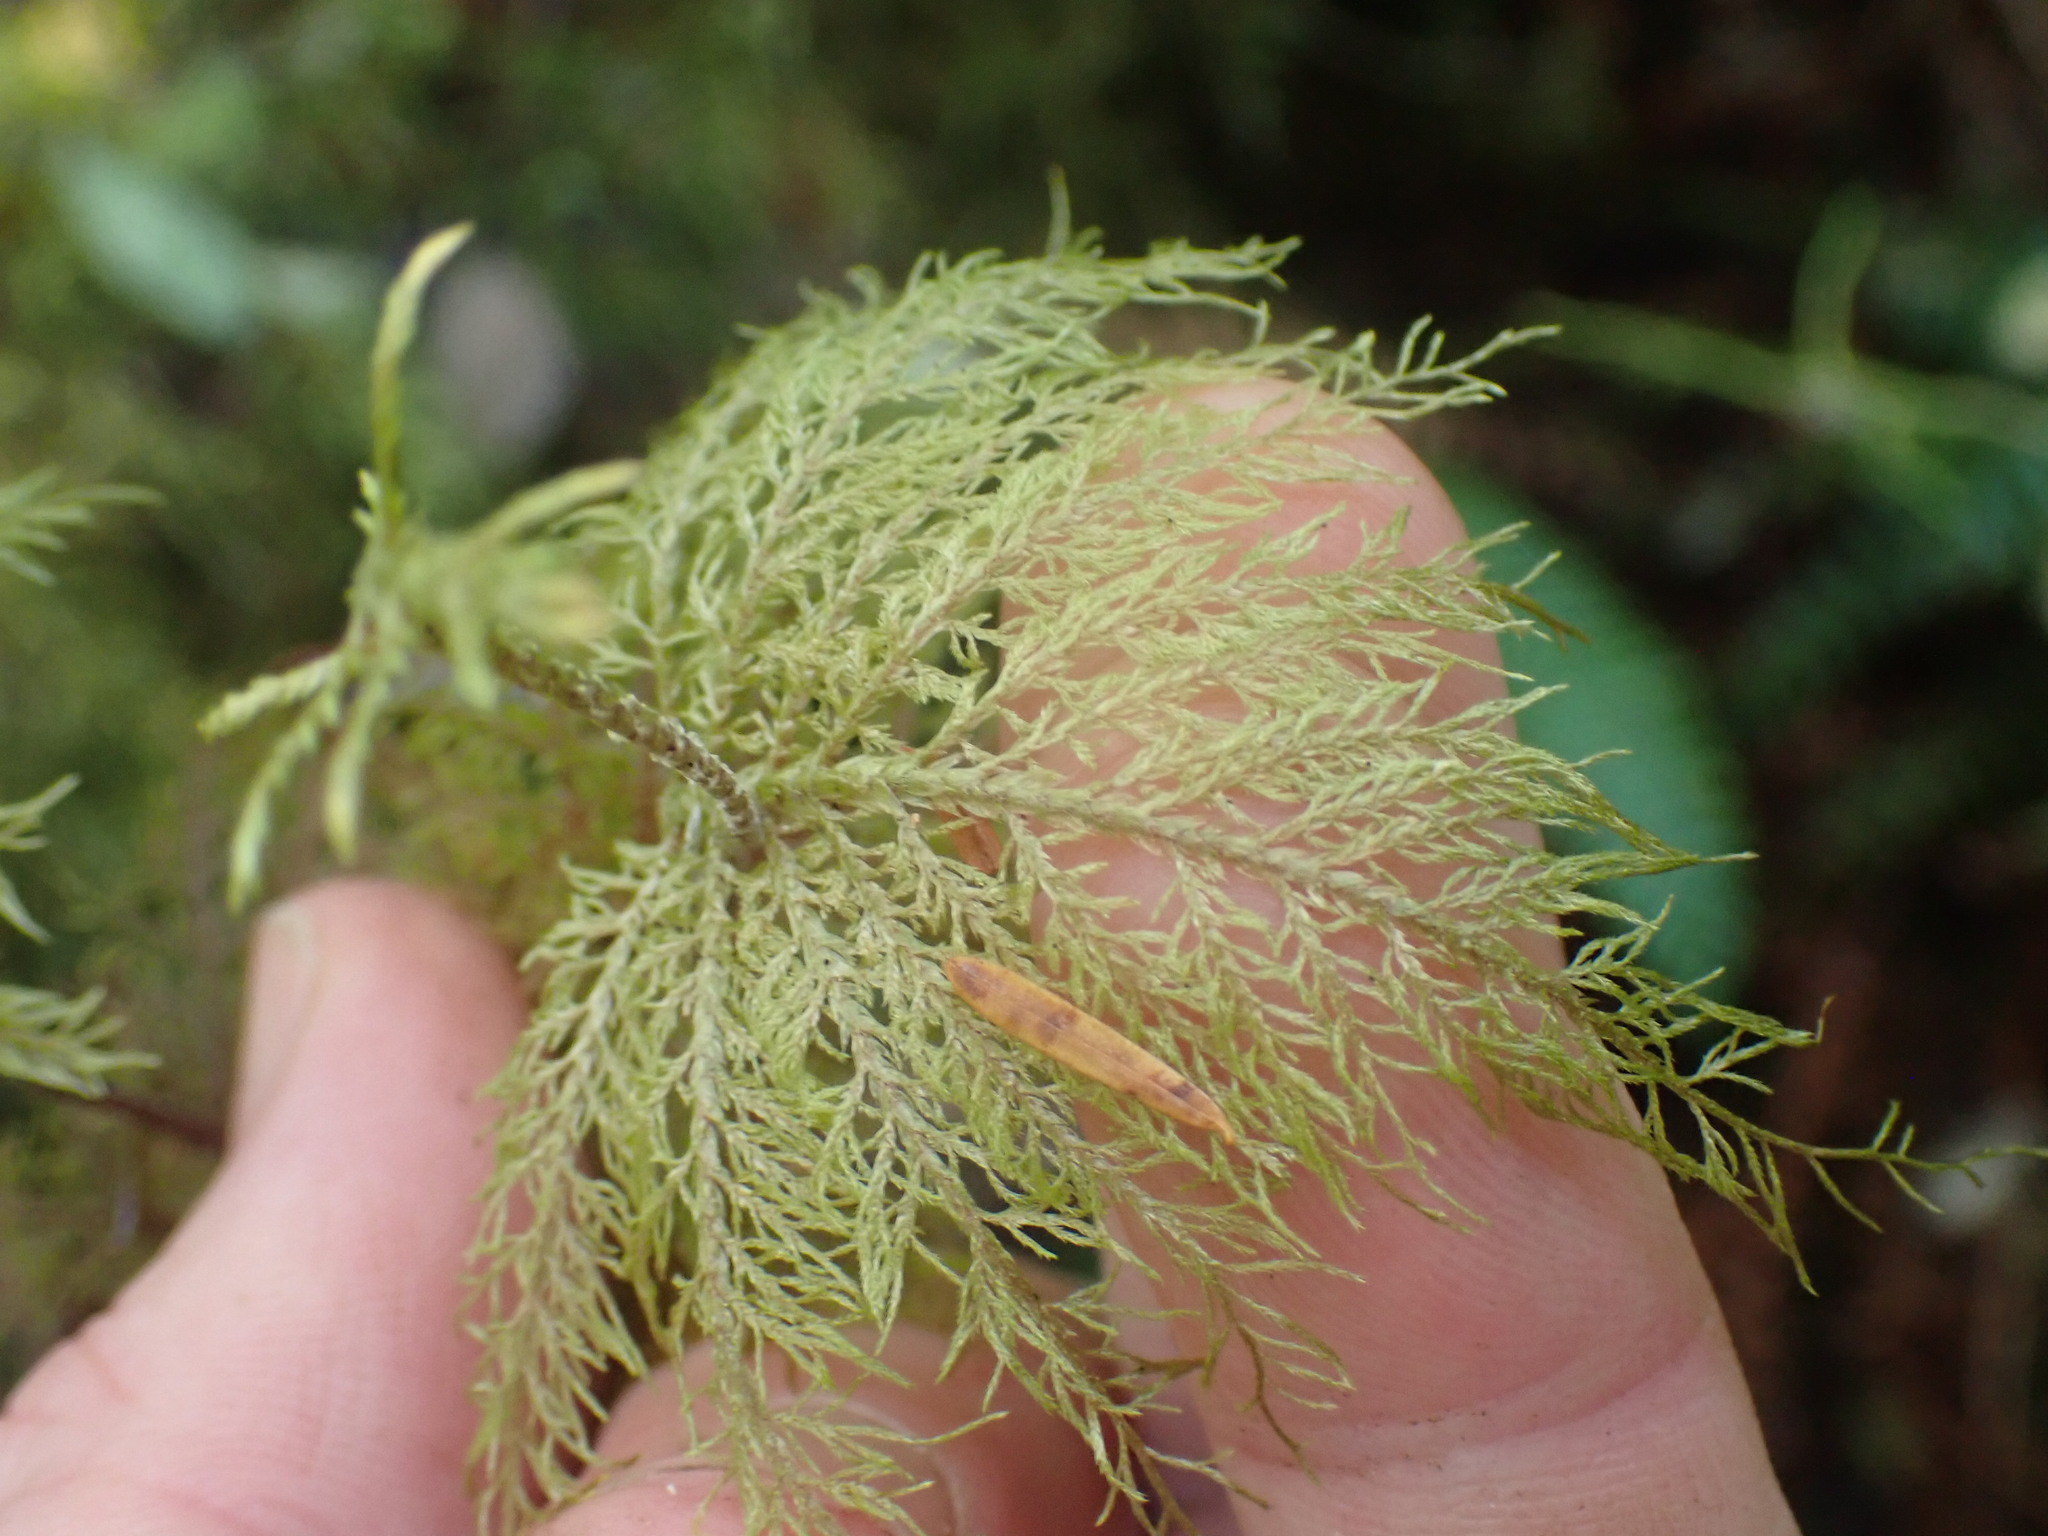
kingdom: Plantae
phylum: Bryophyta
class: Bryopsida
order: Hypnales
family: Hylocomiaceae
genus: Hylocomium
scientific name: Hylocomium splendens
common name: Stairstep moss
